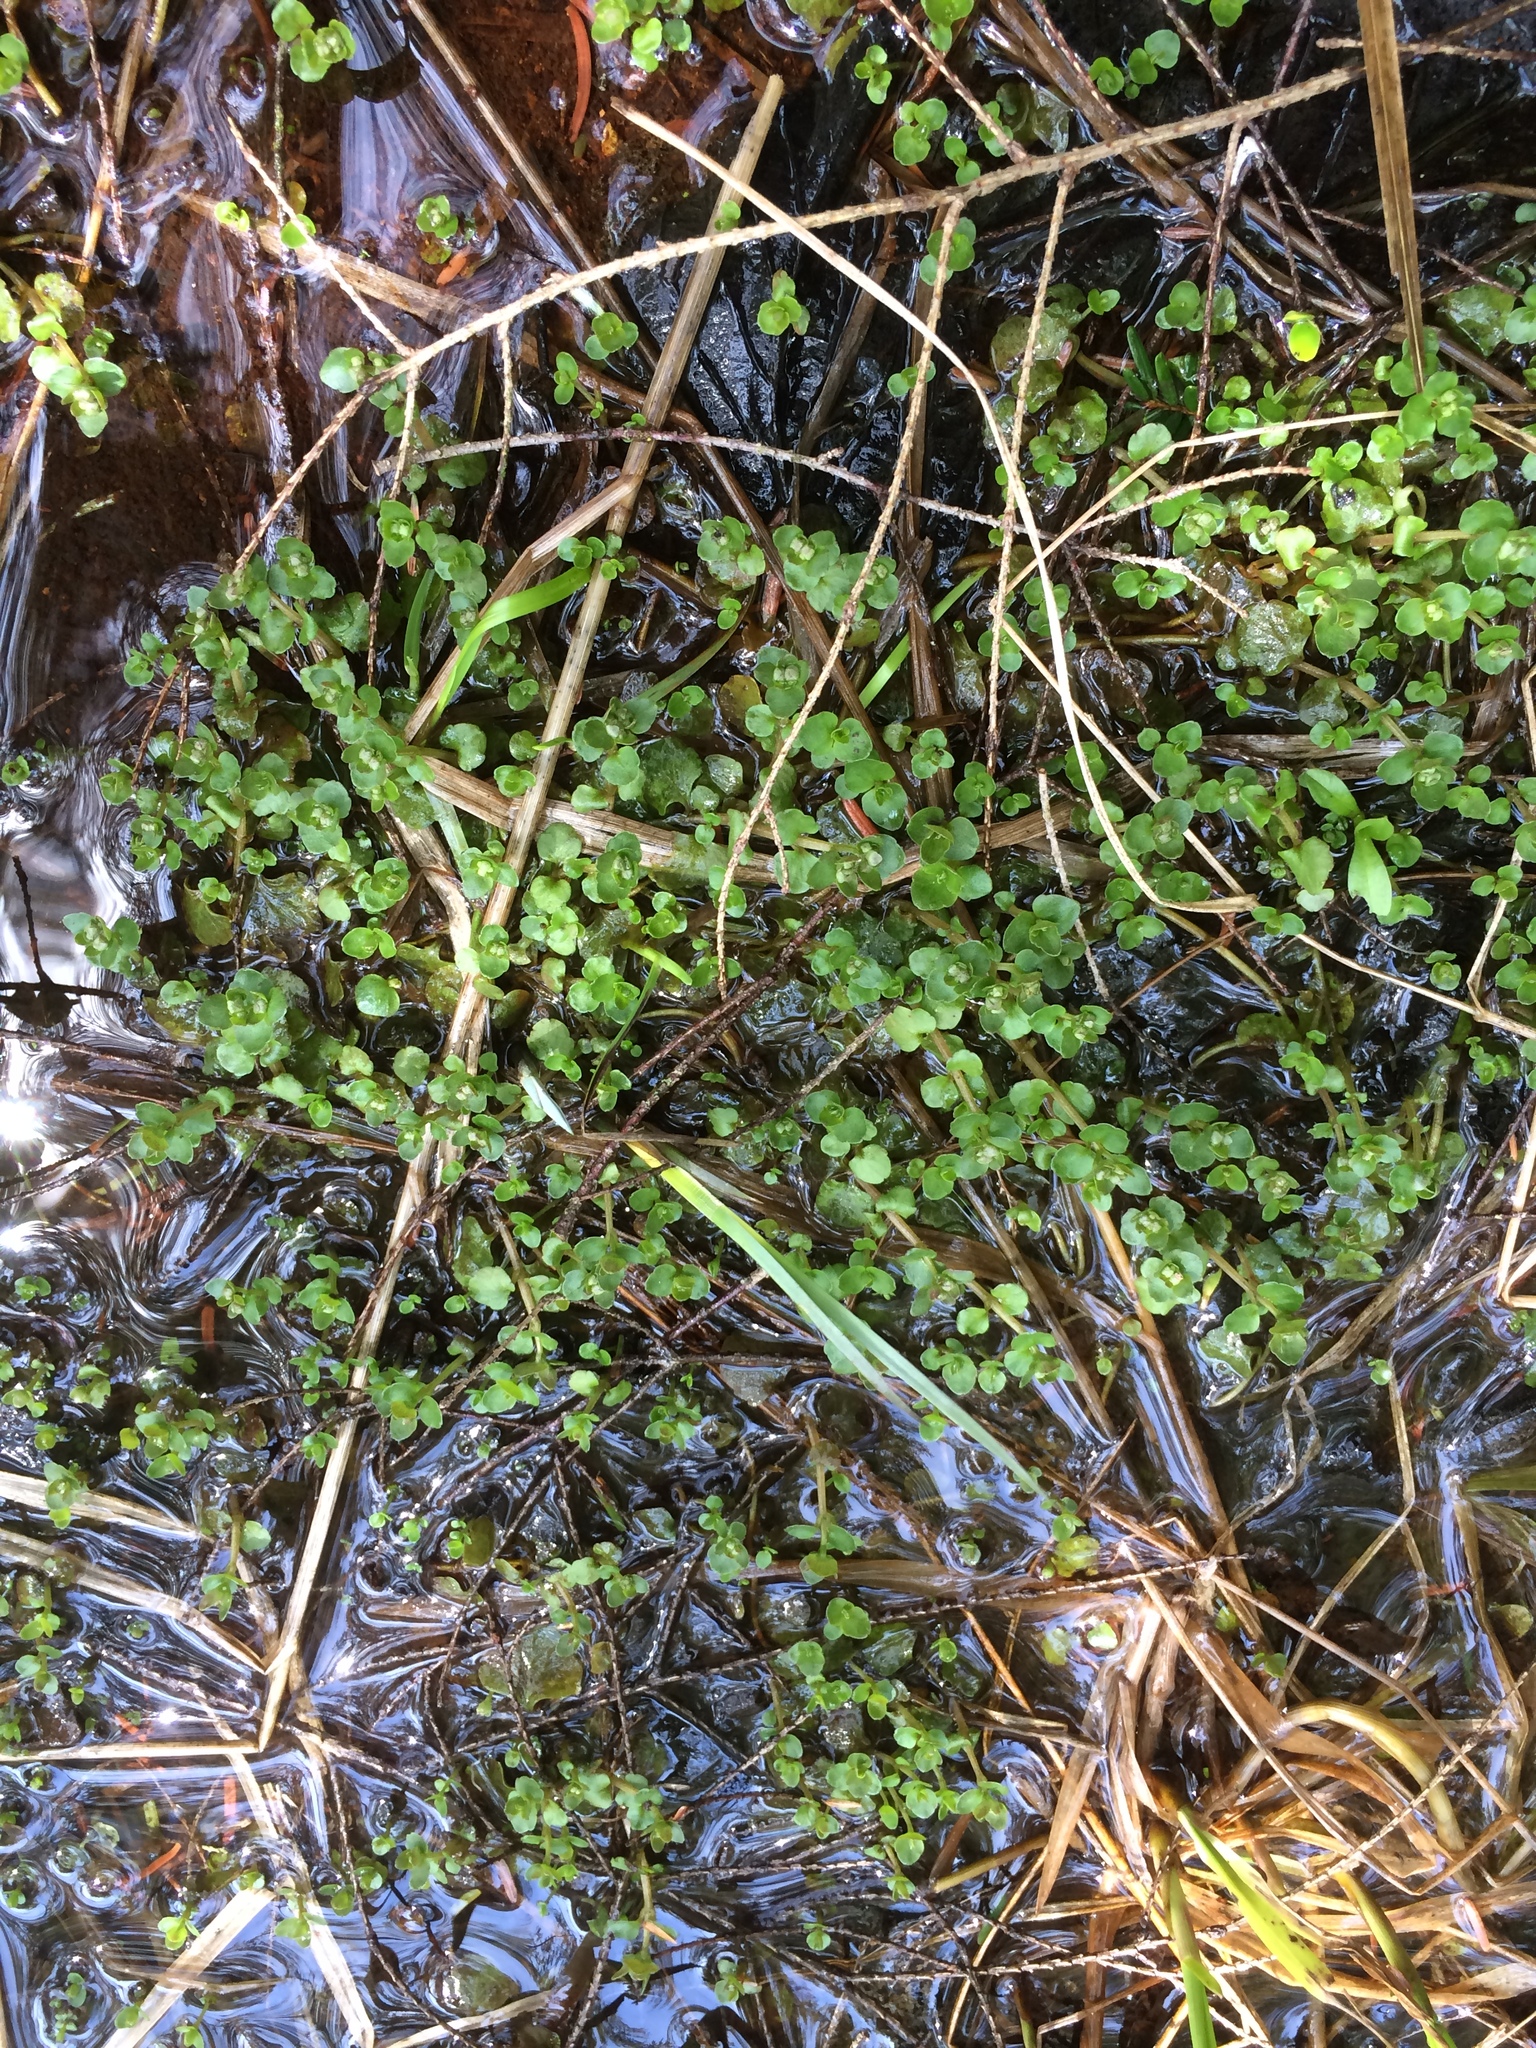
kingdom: Plantae
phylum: Tracheophyta
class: Magnoliopsida
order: Saxifragales
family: Saxifragaceae
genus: Chrysosplenium
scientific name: Chrysosplenium americanum
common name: American golden-saxifrage
